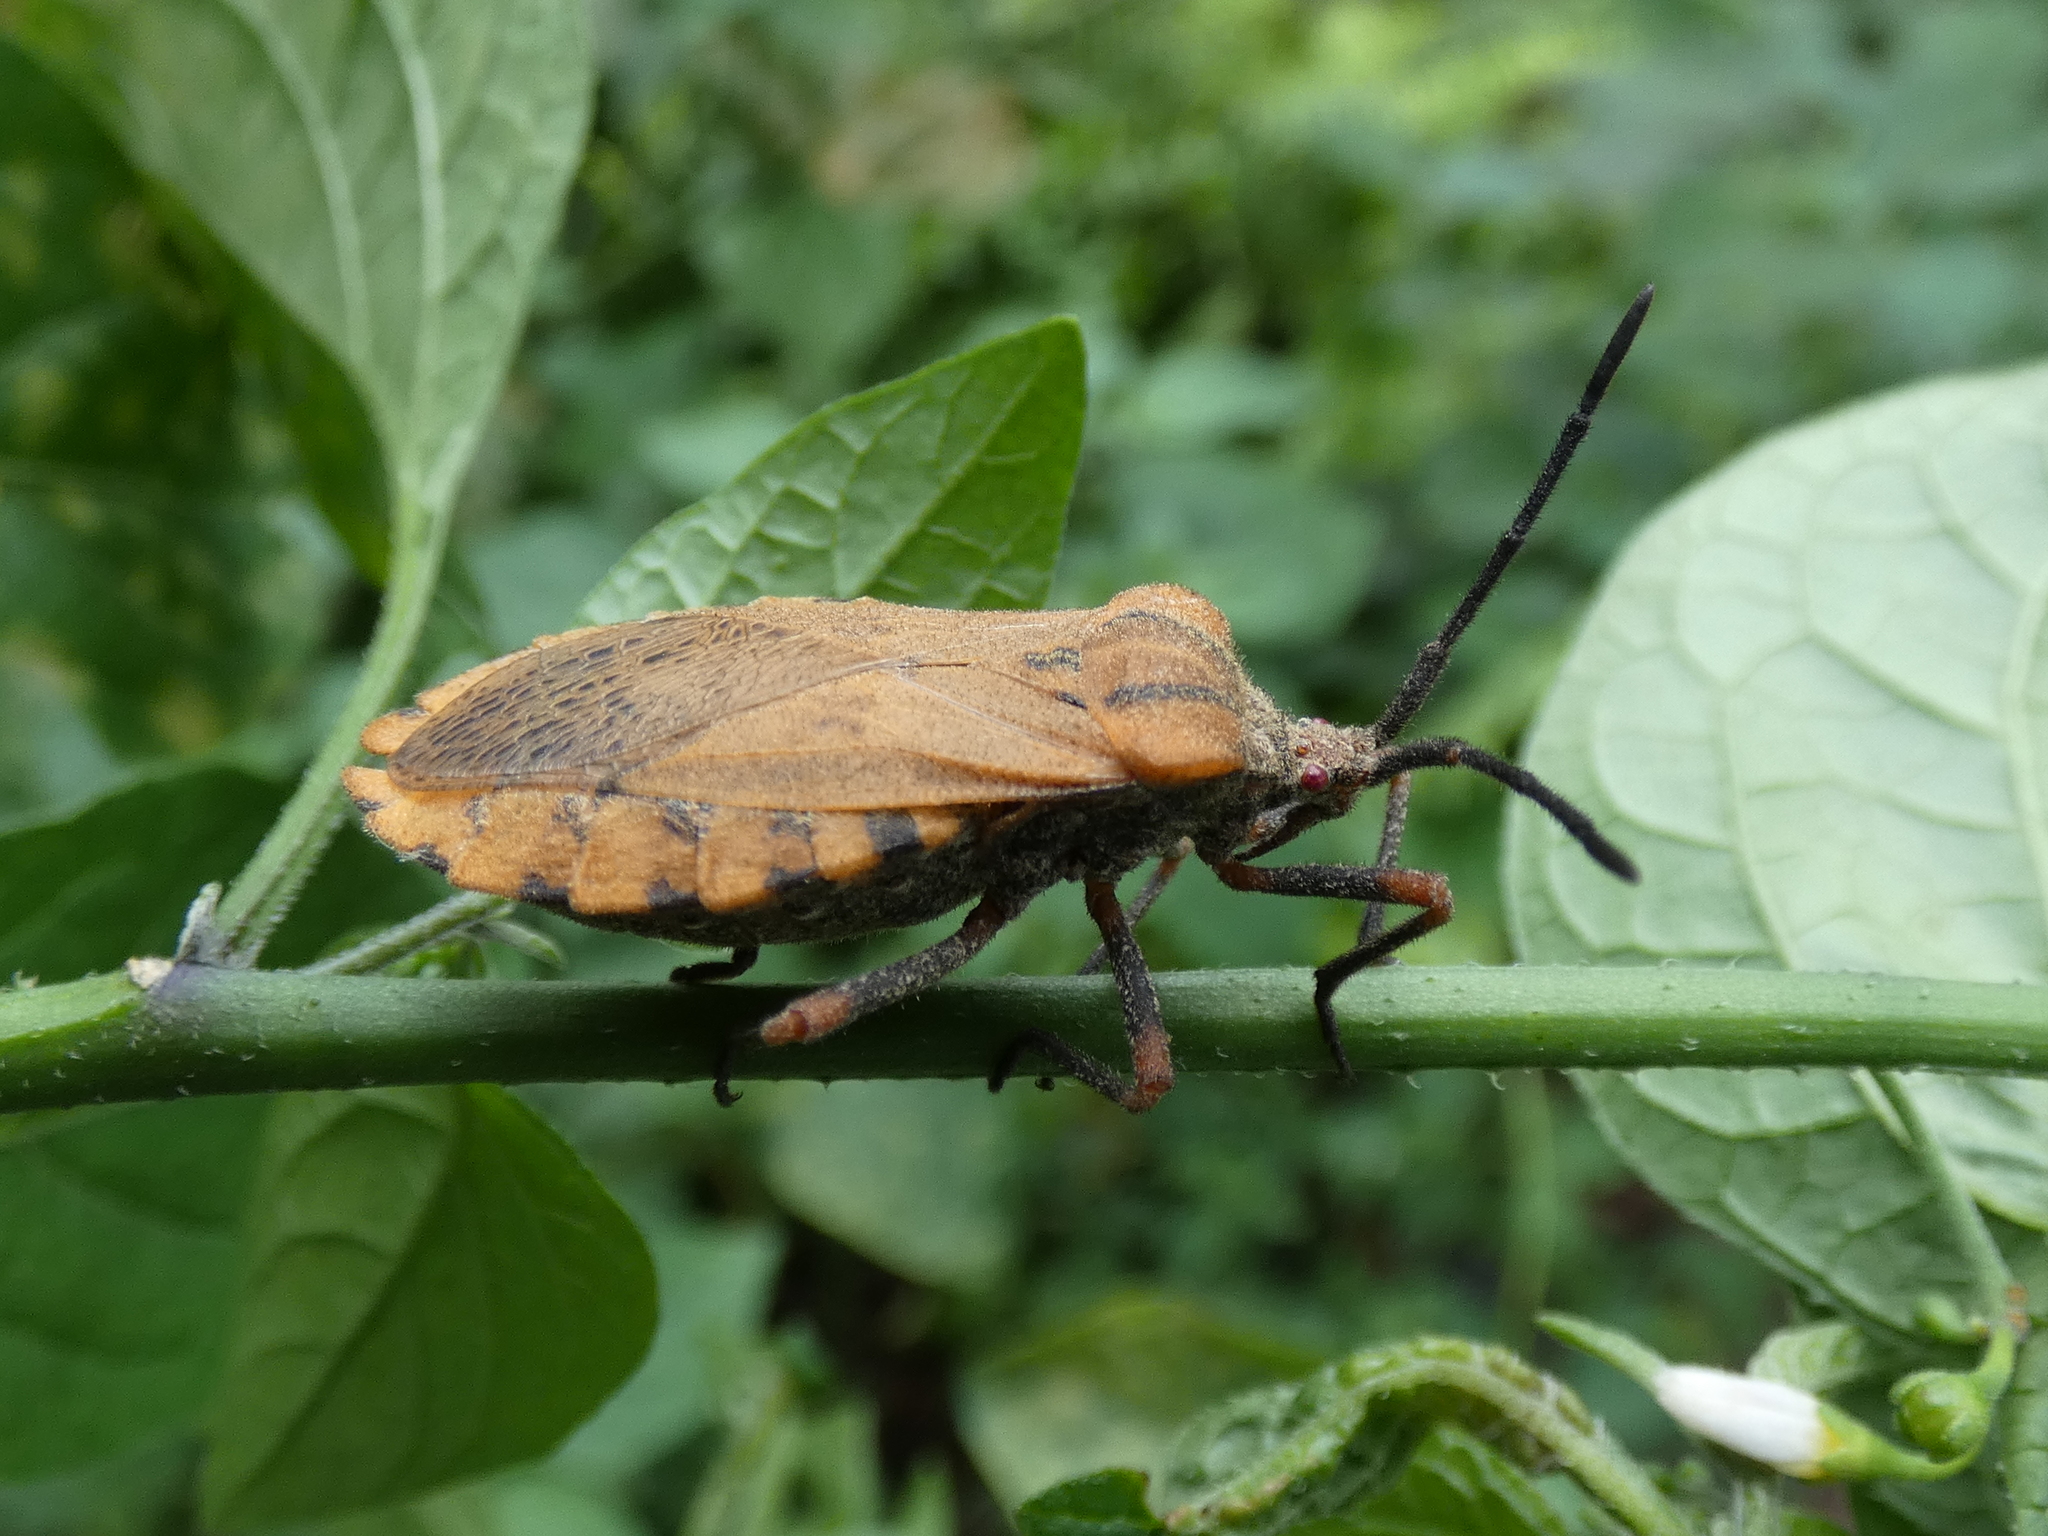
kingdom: Animalia
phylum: Arthropoda
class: Insecta
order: Hemiptera
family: Coreidae
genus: Spartocera
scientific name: Spartocera fusca
